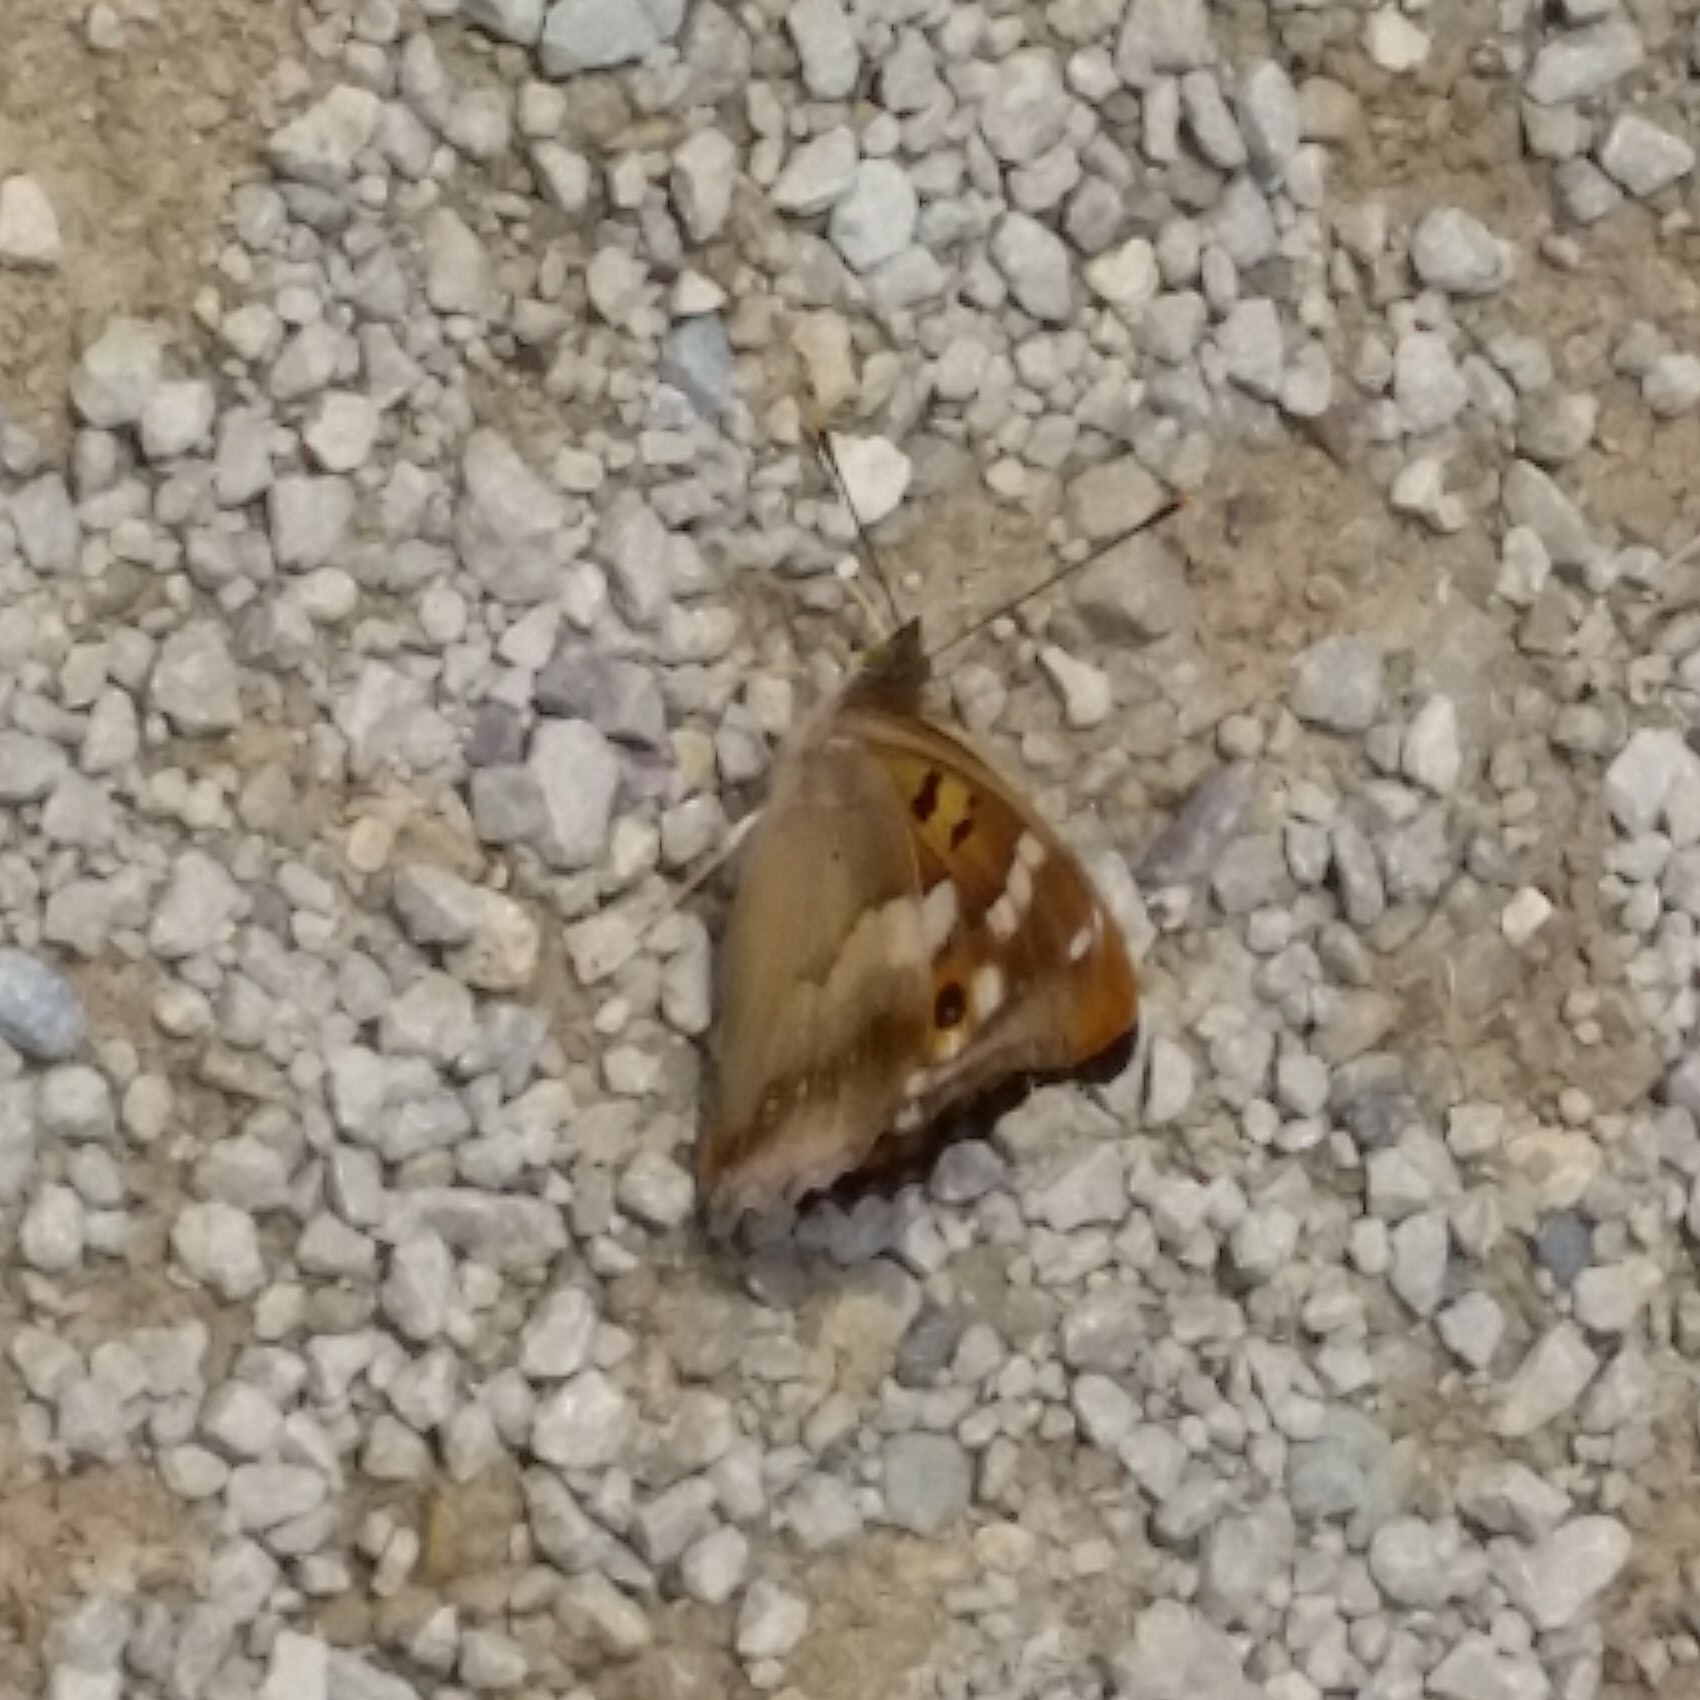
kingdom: Animalia
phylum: Arthropoda
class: Insecta
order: Lepidoptera
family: Nymphalidae
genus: Apatura
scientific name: Apatura ilia
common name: Lesser purple emperor
